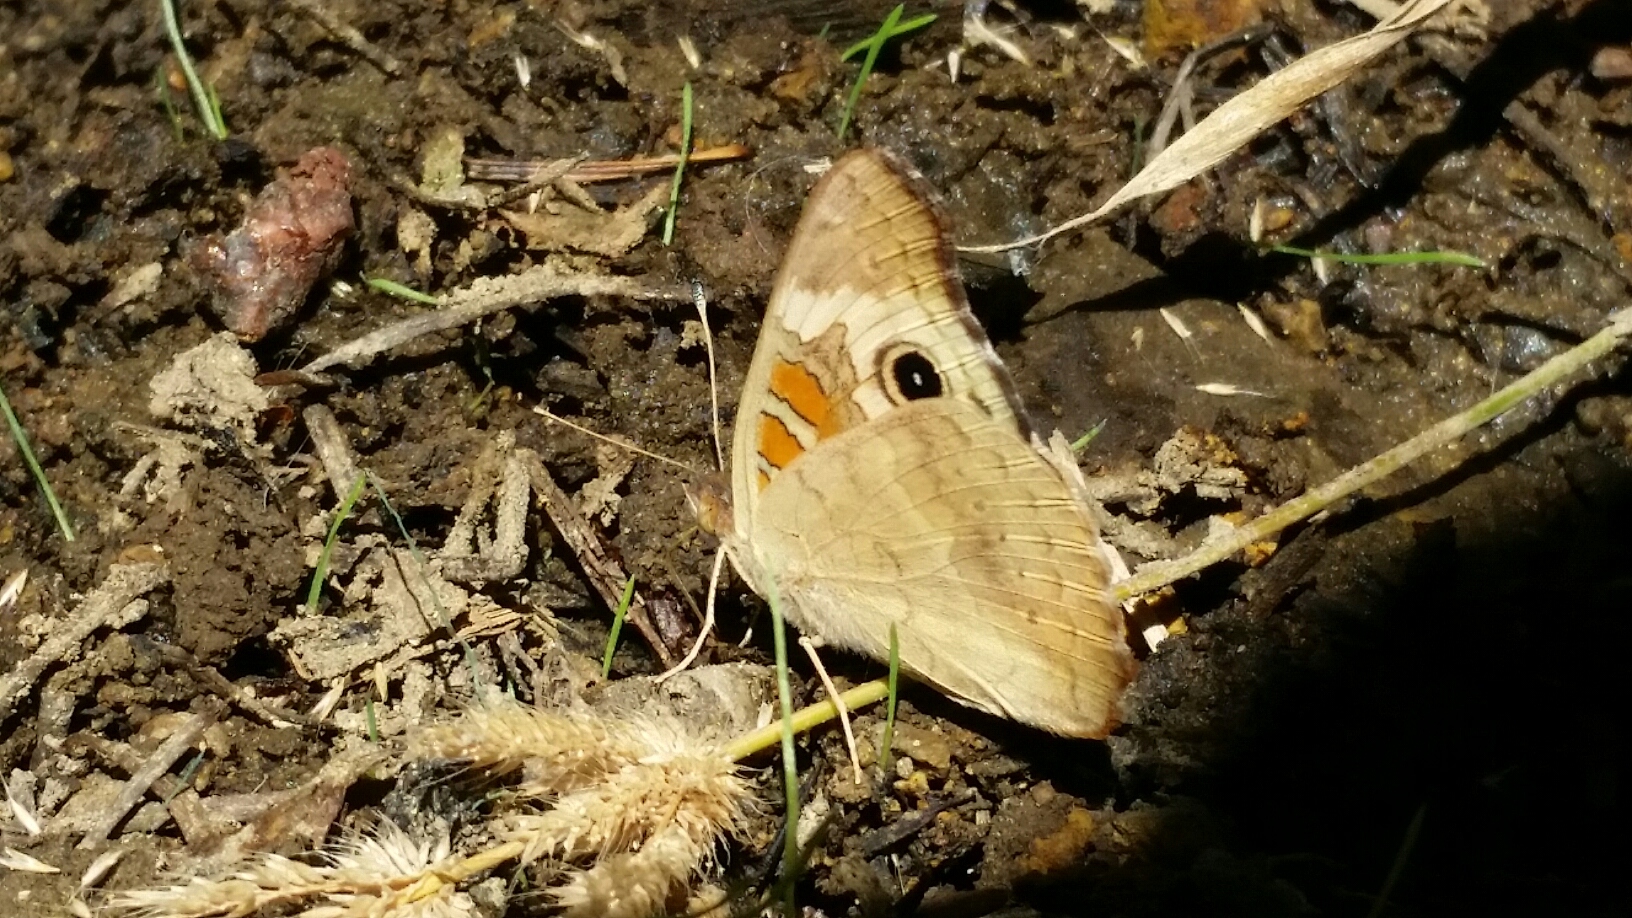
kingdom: Animalia
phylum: Arthropoda
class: Insecta
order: Lepidoptera
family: Nymphalidae
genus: Junonia
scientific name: Junonia grisea
